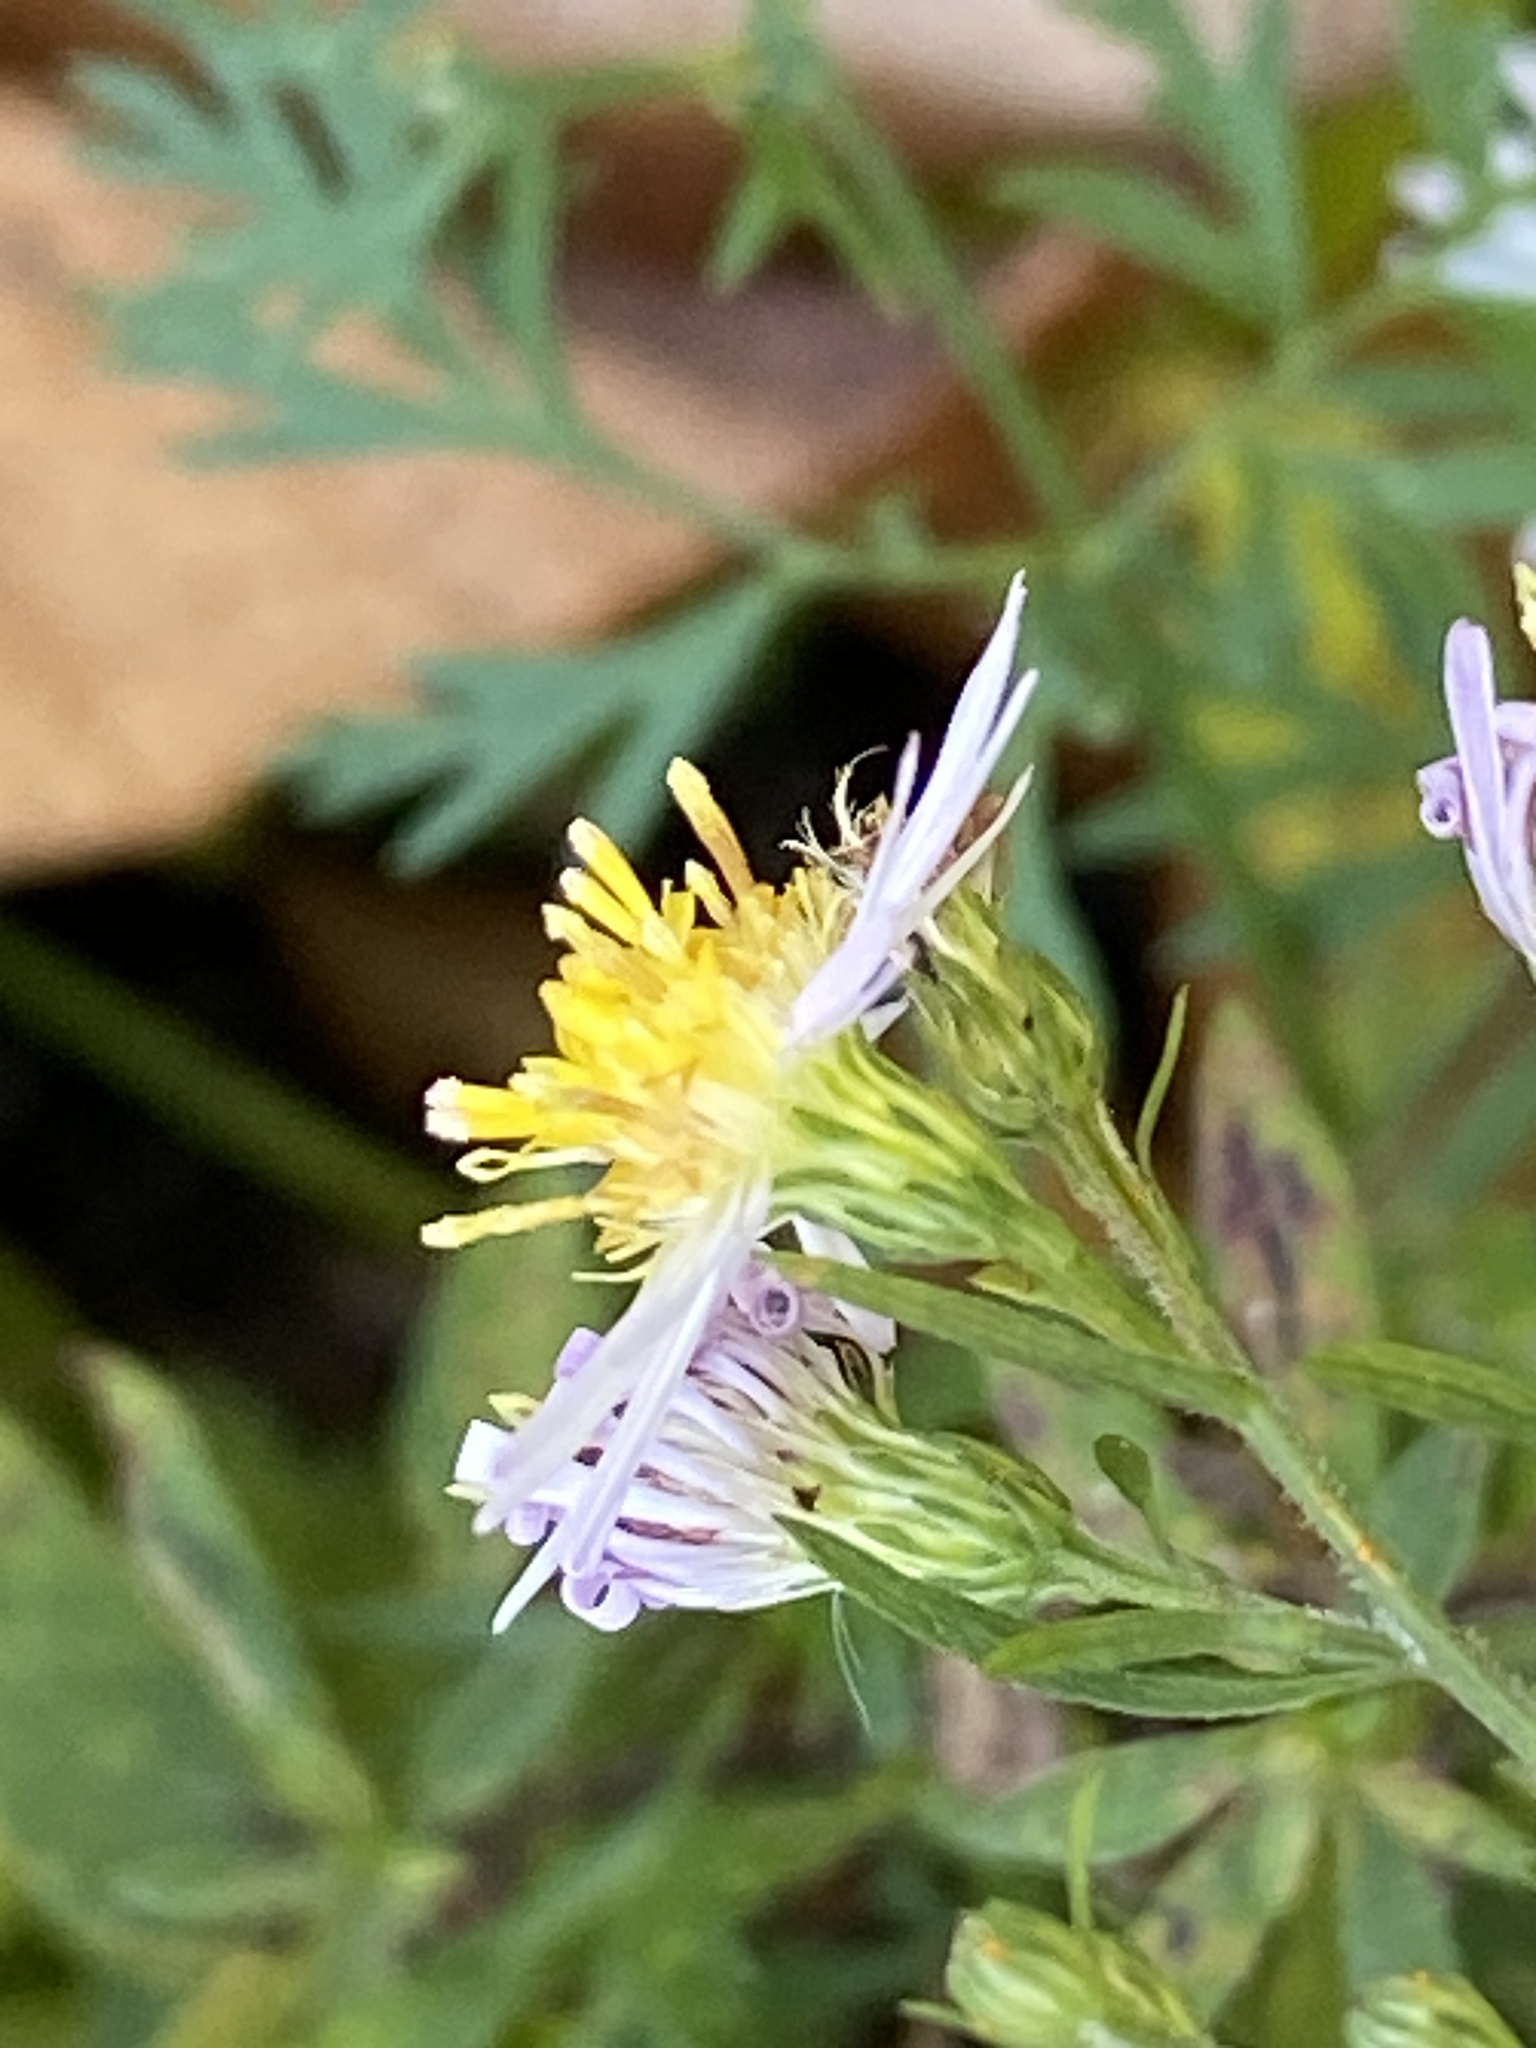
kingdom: Plantae
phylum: Tracheophyta
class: Magnoliopsida
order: Asterales
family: Asteraceae
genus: Symphyotrichum
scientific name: Symphyotrichum lanceolatum
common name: Panicled aster
